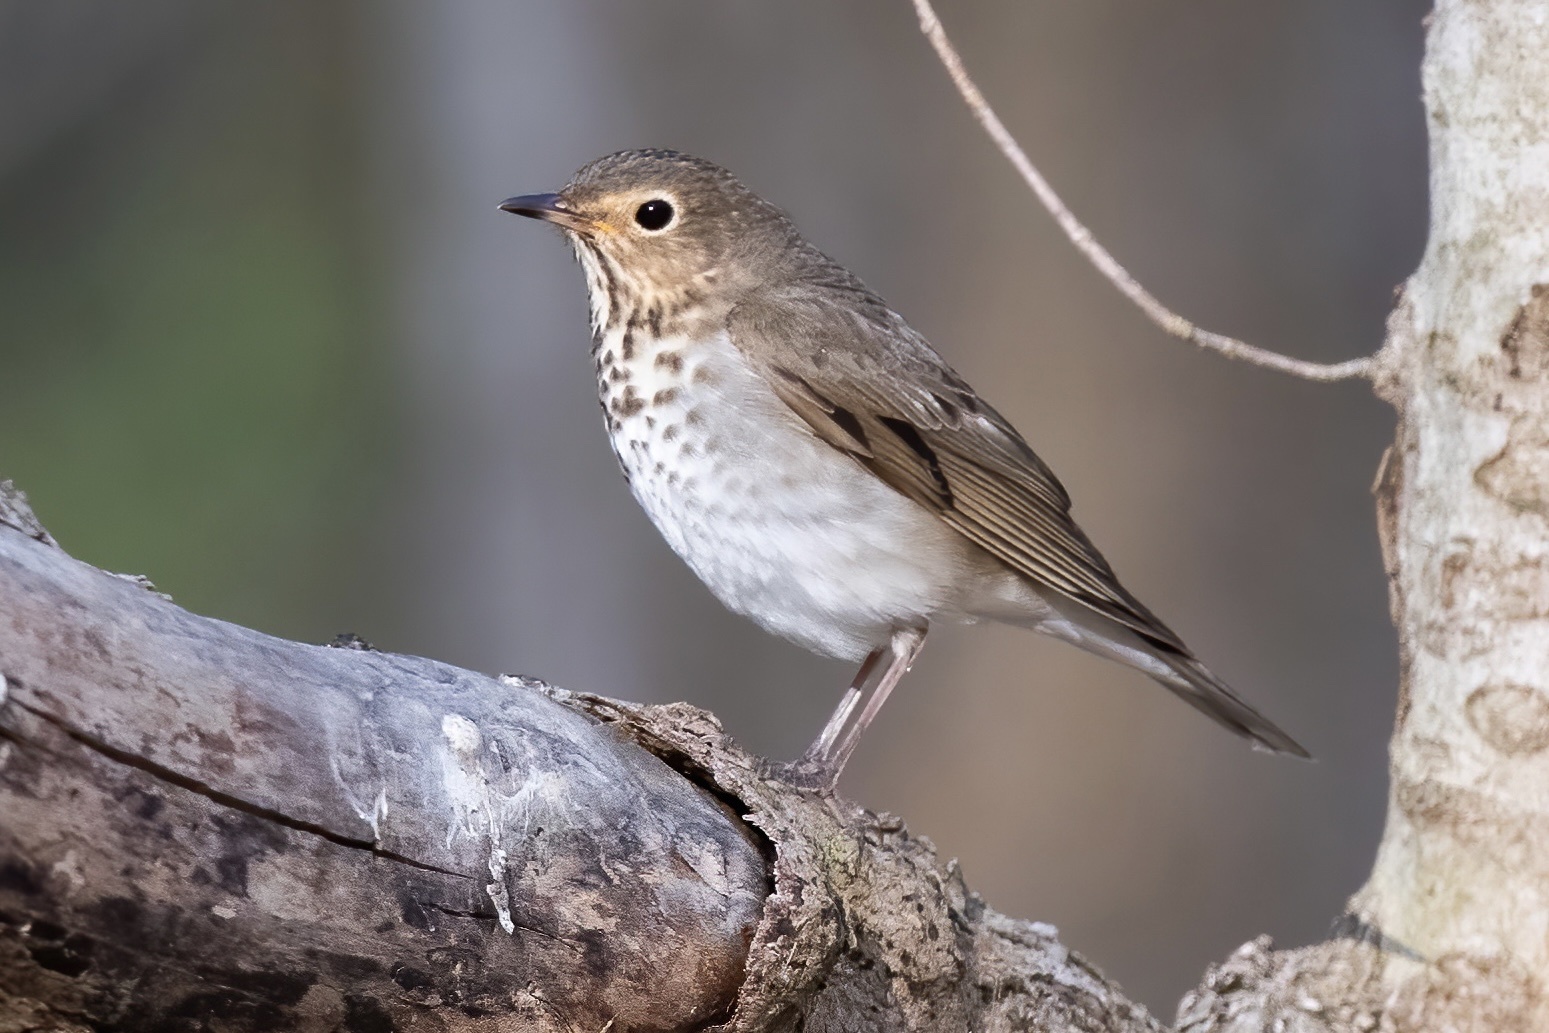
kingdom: Animalia
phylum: Chordata
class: Aves
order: Passeriformes
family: Turdidae
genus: Catharus
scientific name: Catharus ustulatus
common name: Swainson's thrush
